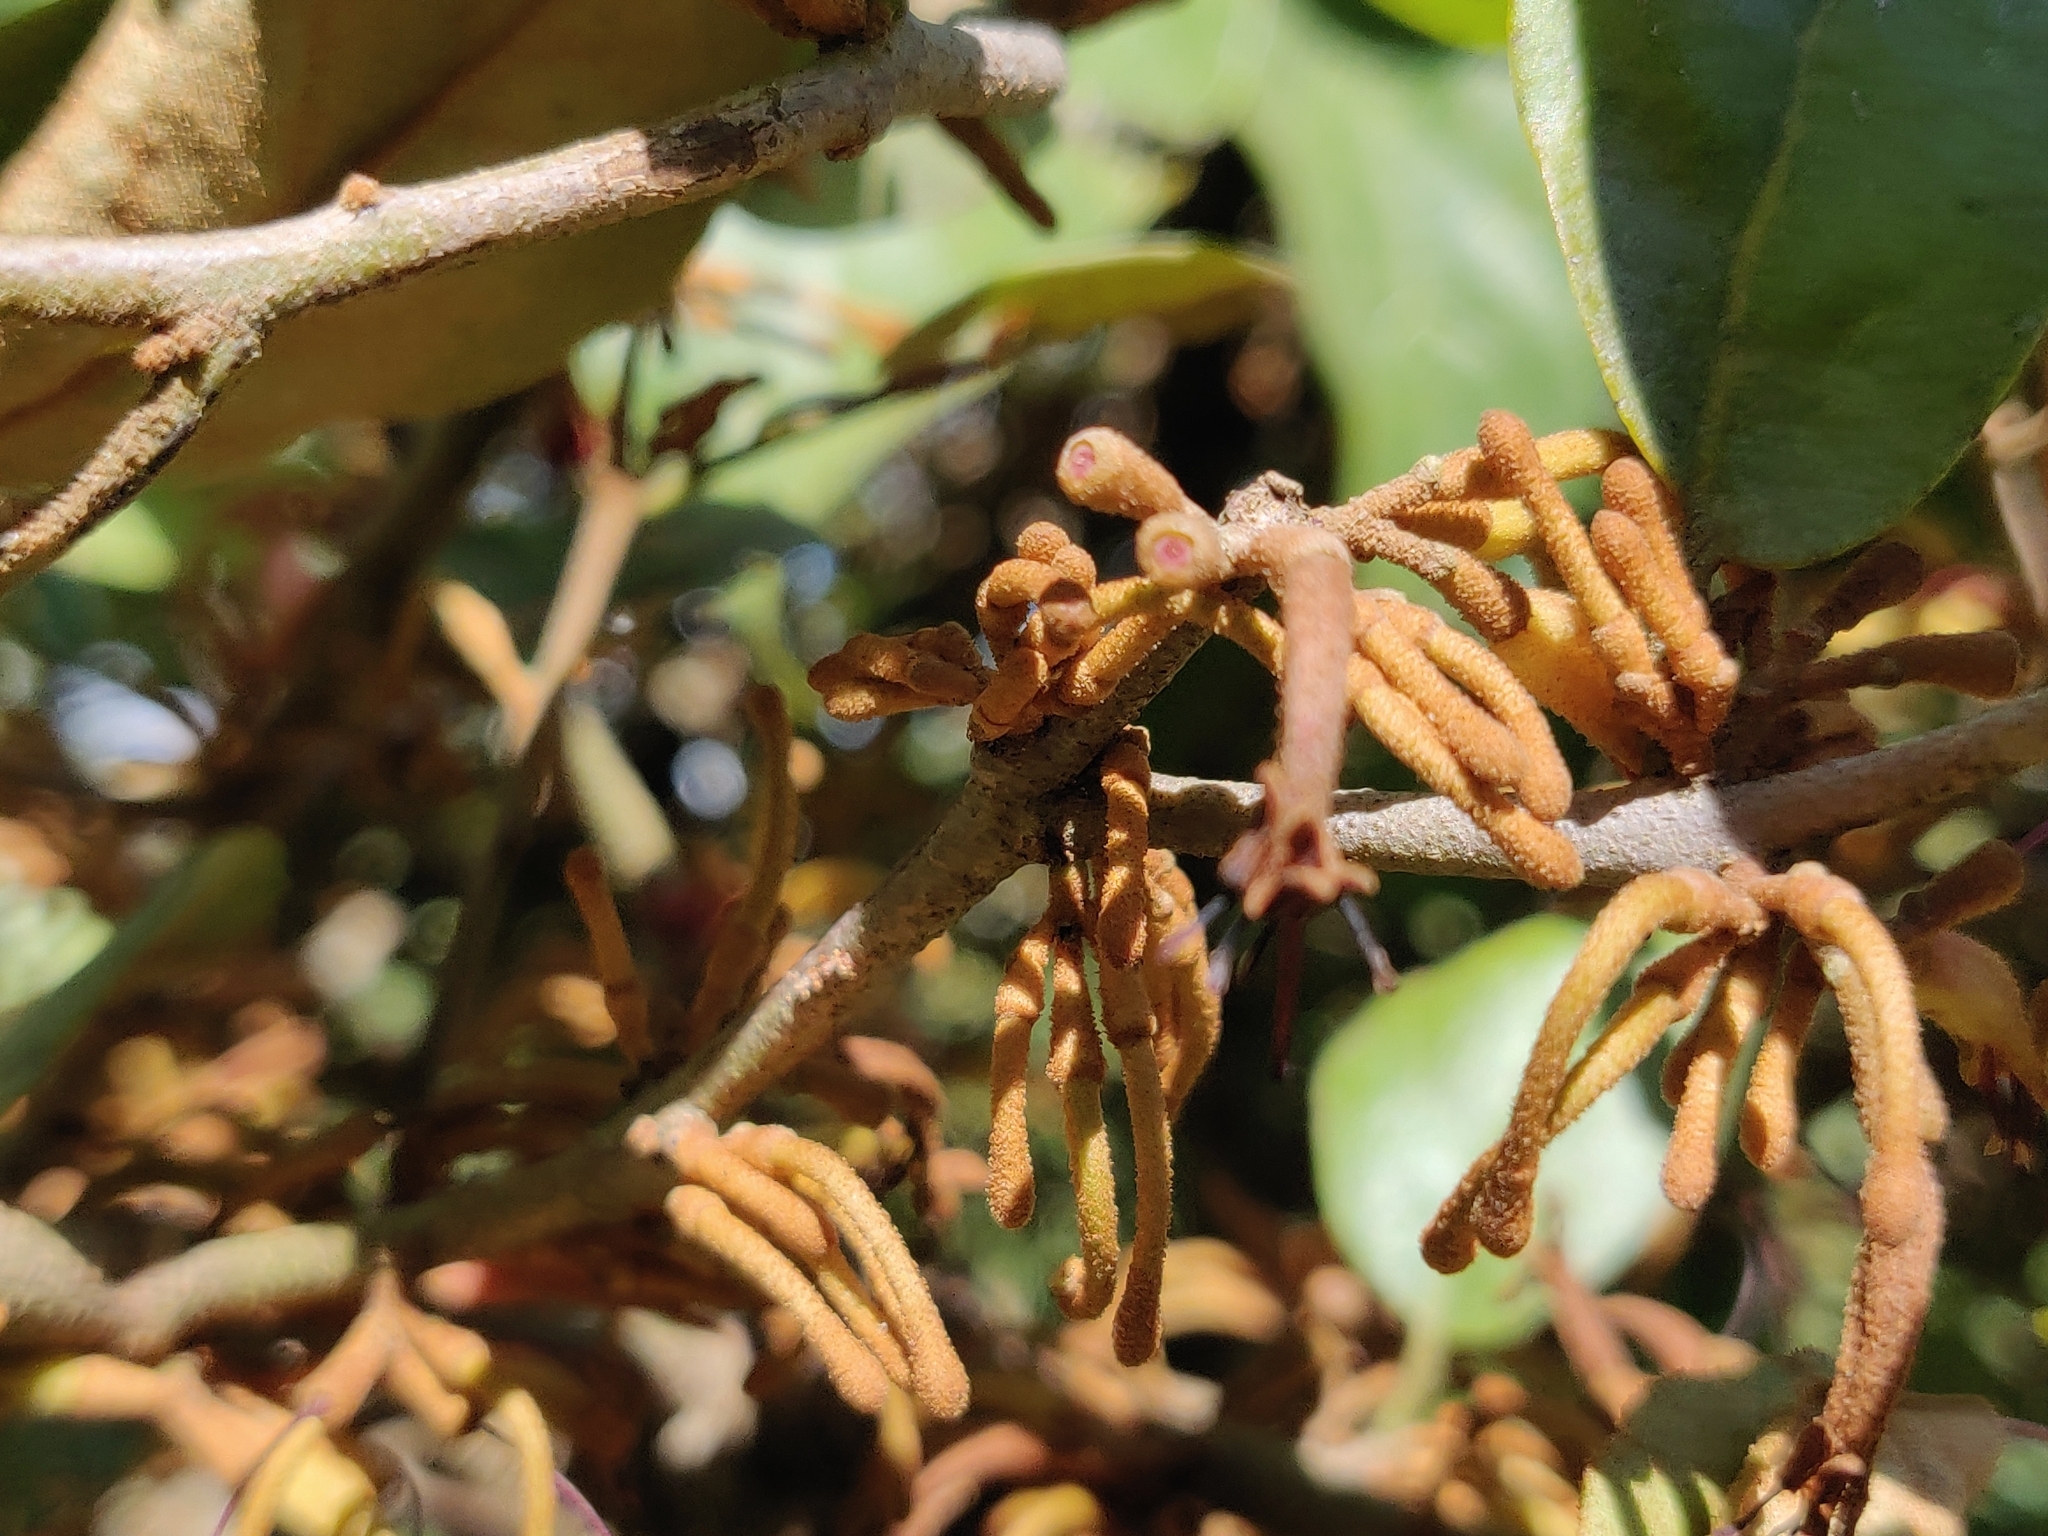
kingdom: Plantae
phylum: Tracheophyta
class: Magnoliopsida
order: Santalales
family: Loranthaceae
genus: Scurrula
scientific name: Scurrula parasitica
